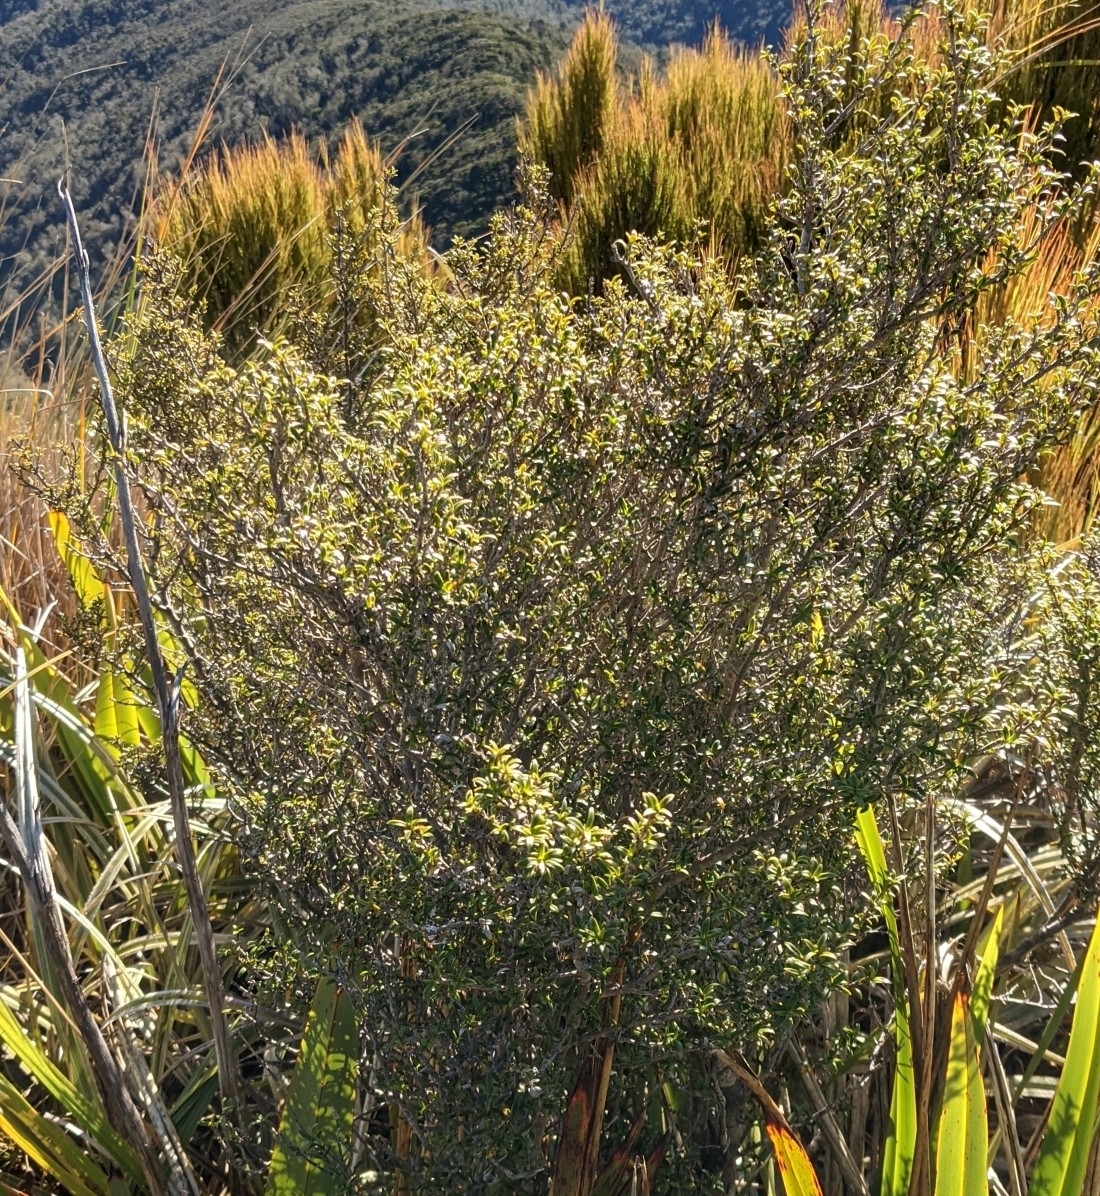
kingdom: Plantae
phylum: Tracheophyta
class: Magnoliopsida
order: Gentianales
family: Rubiaceae
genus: Coprosma
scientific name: Coprosma pseudocuneata
